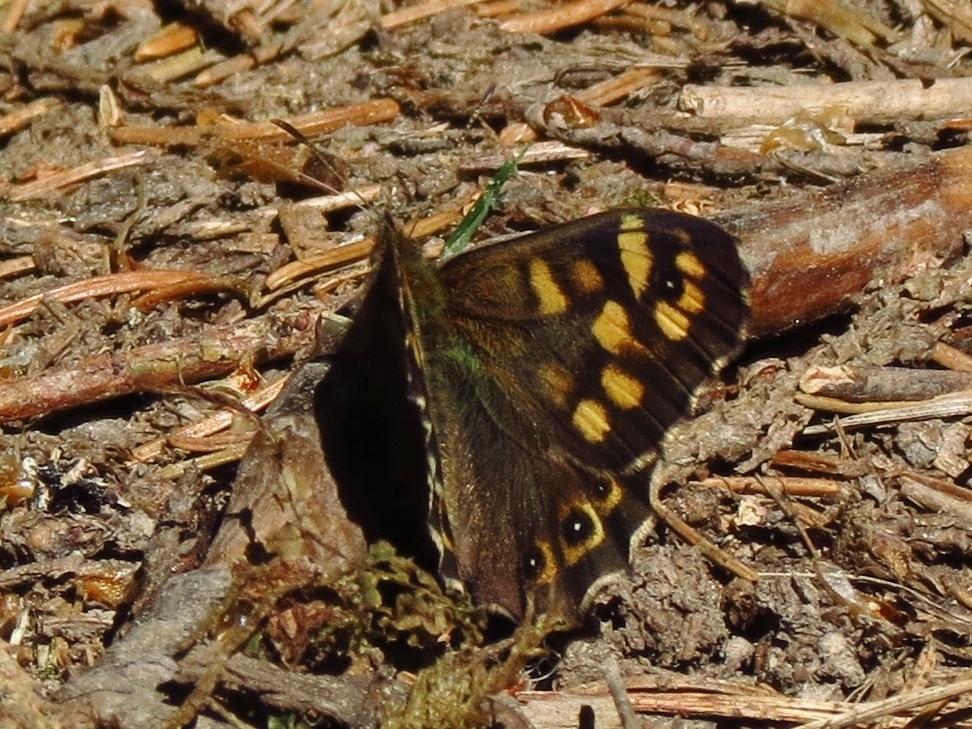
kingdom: Animalia
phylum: Arthropoda
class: Insecta
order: Lepidoptera
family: Nymphalidae
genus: Pararge
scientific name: Pararge aegeria
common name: Speckled wood
